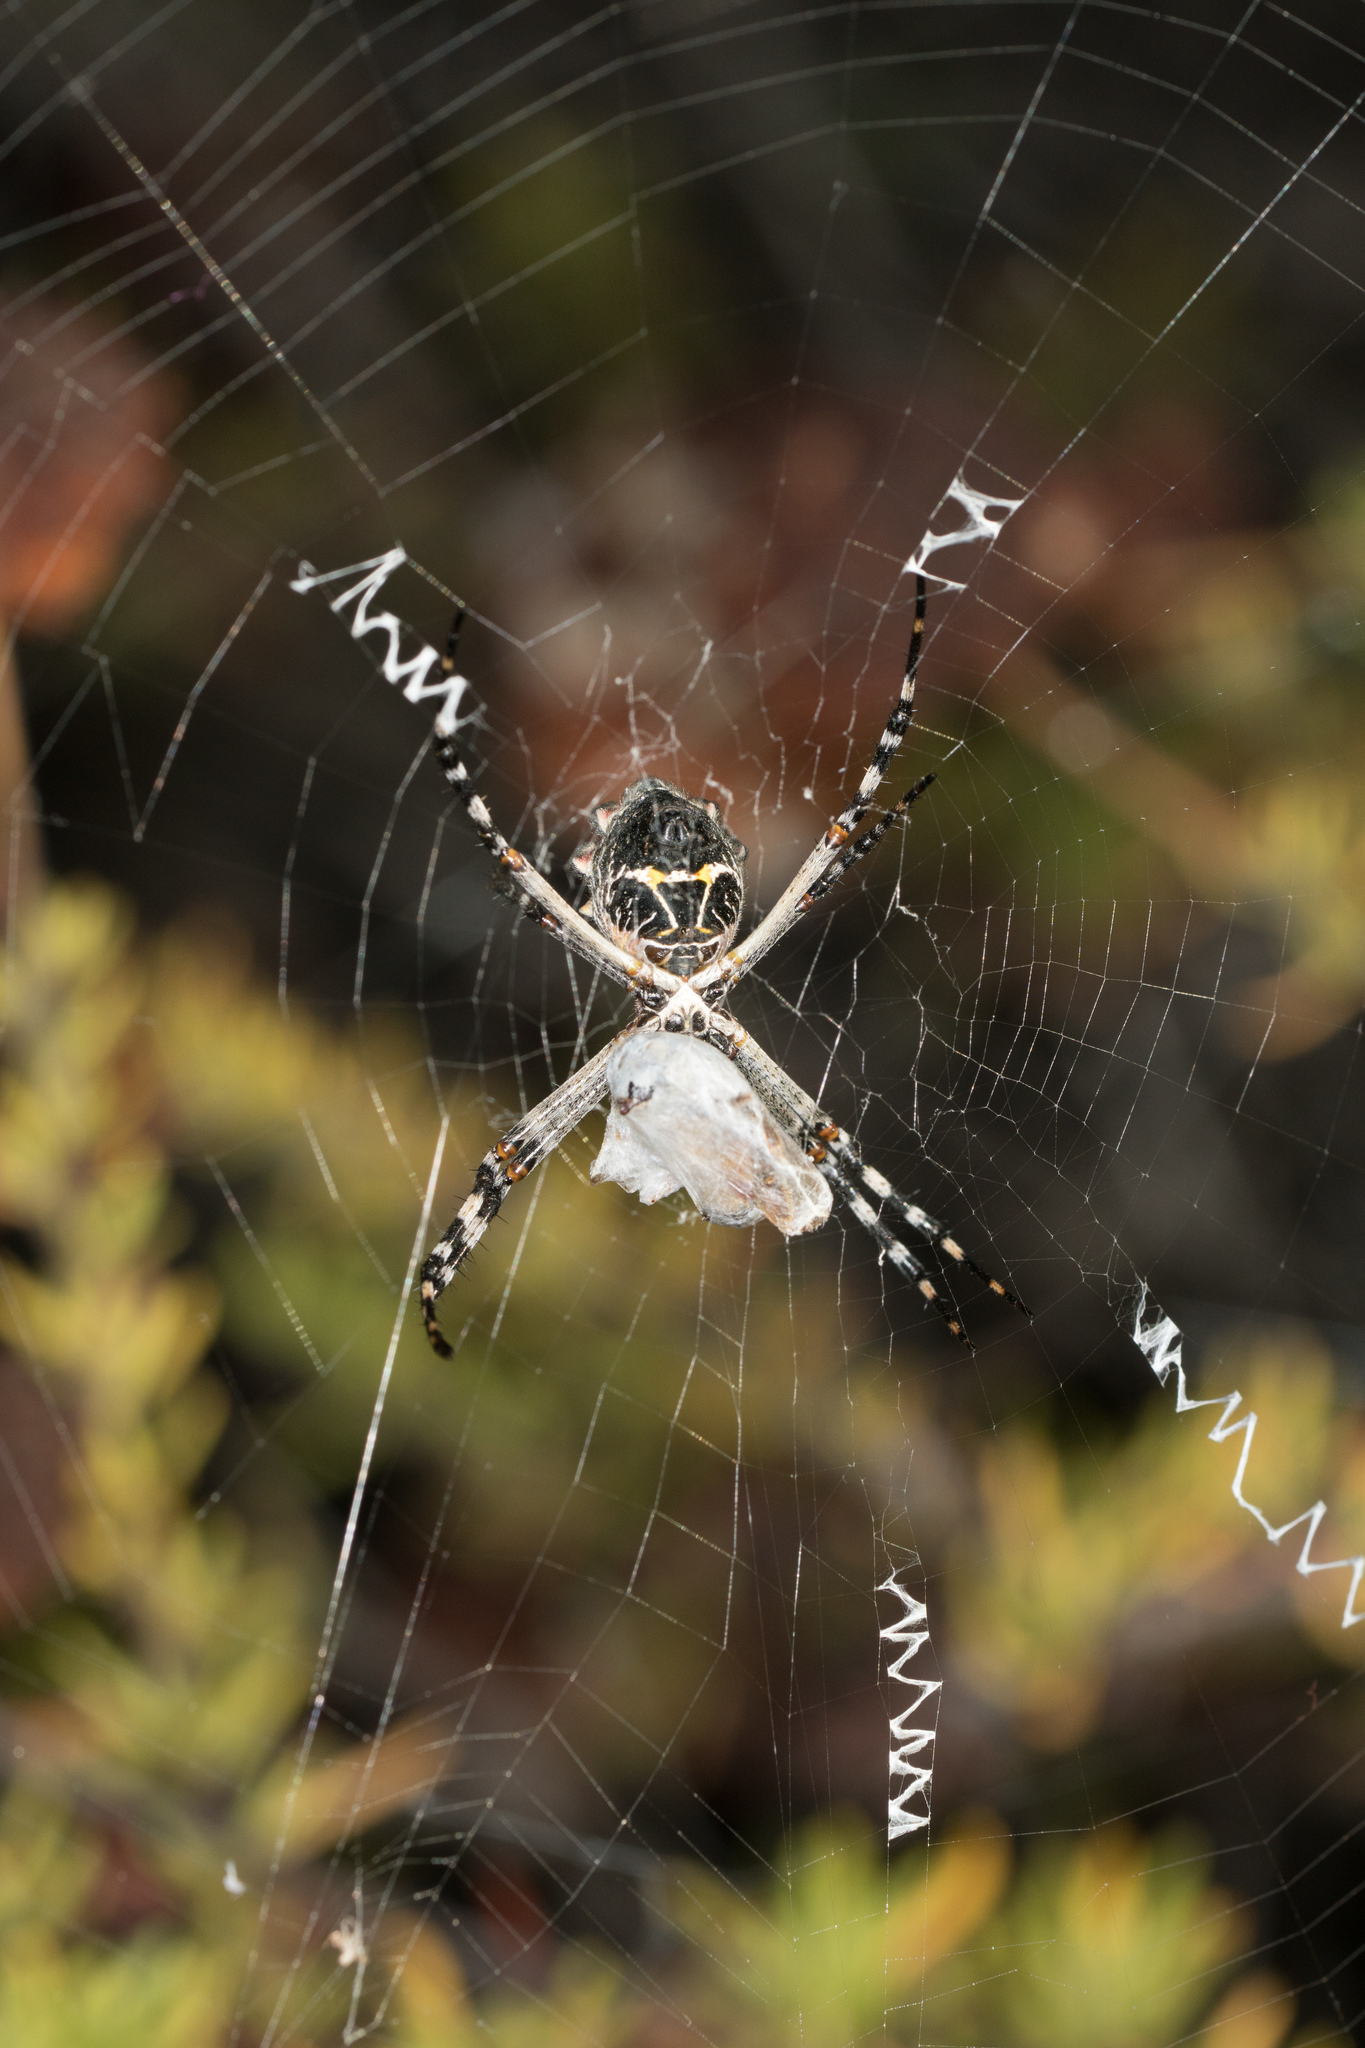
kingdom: Animalia
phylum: Arthropoda
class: Arachnida
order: Araneae
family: Araneidae
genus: Argiope
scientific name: Argiope argentata
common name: Orb weavers
